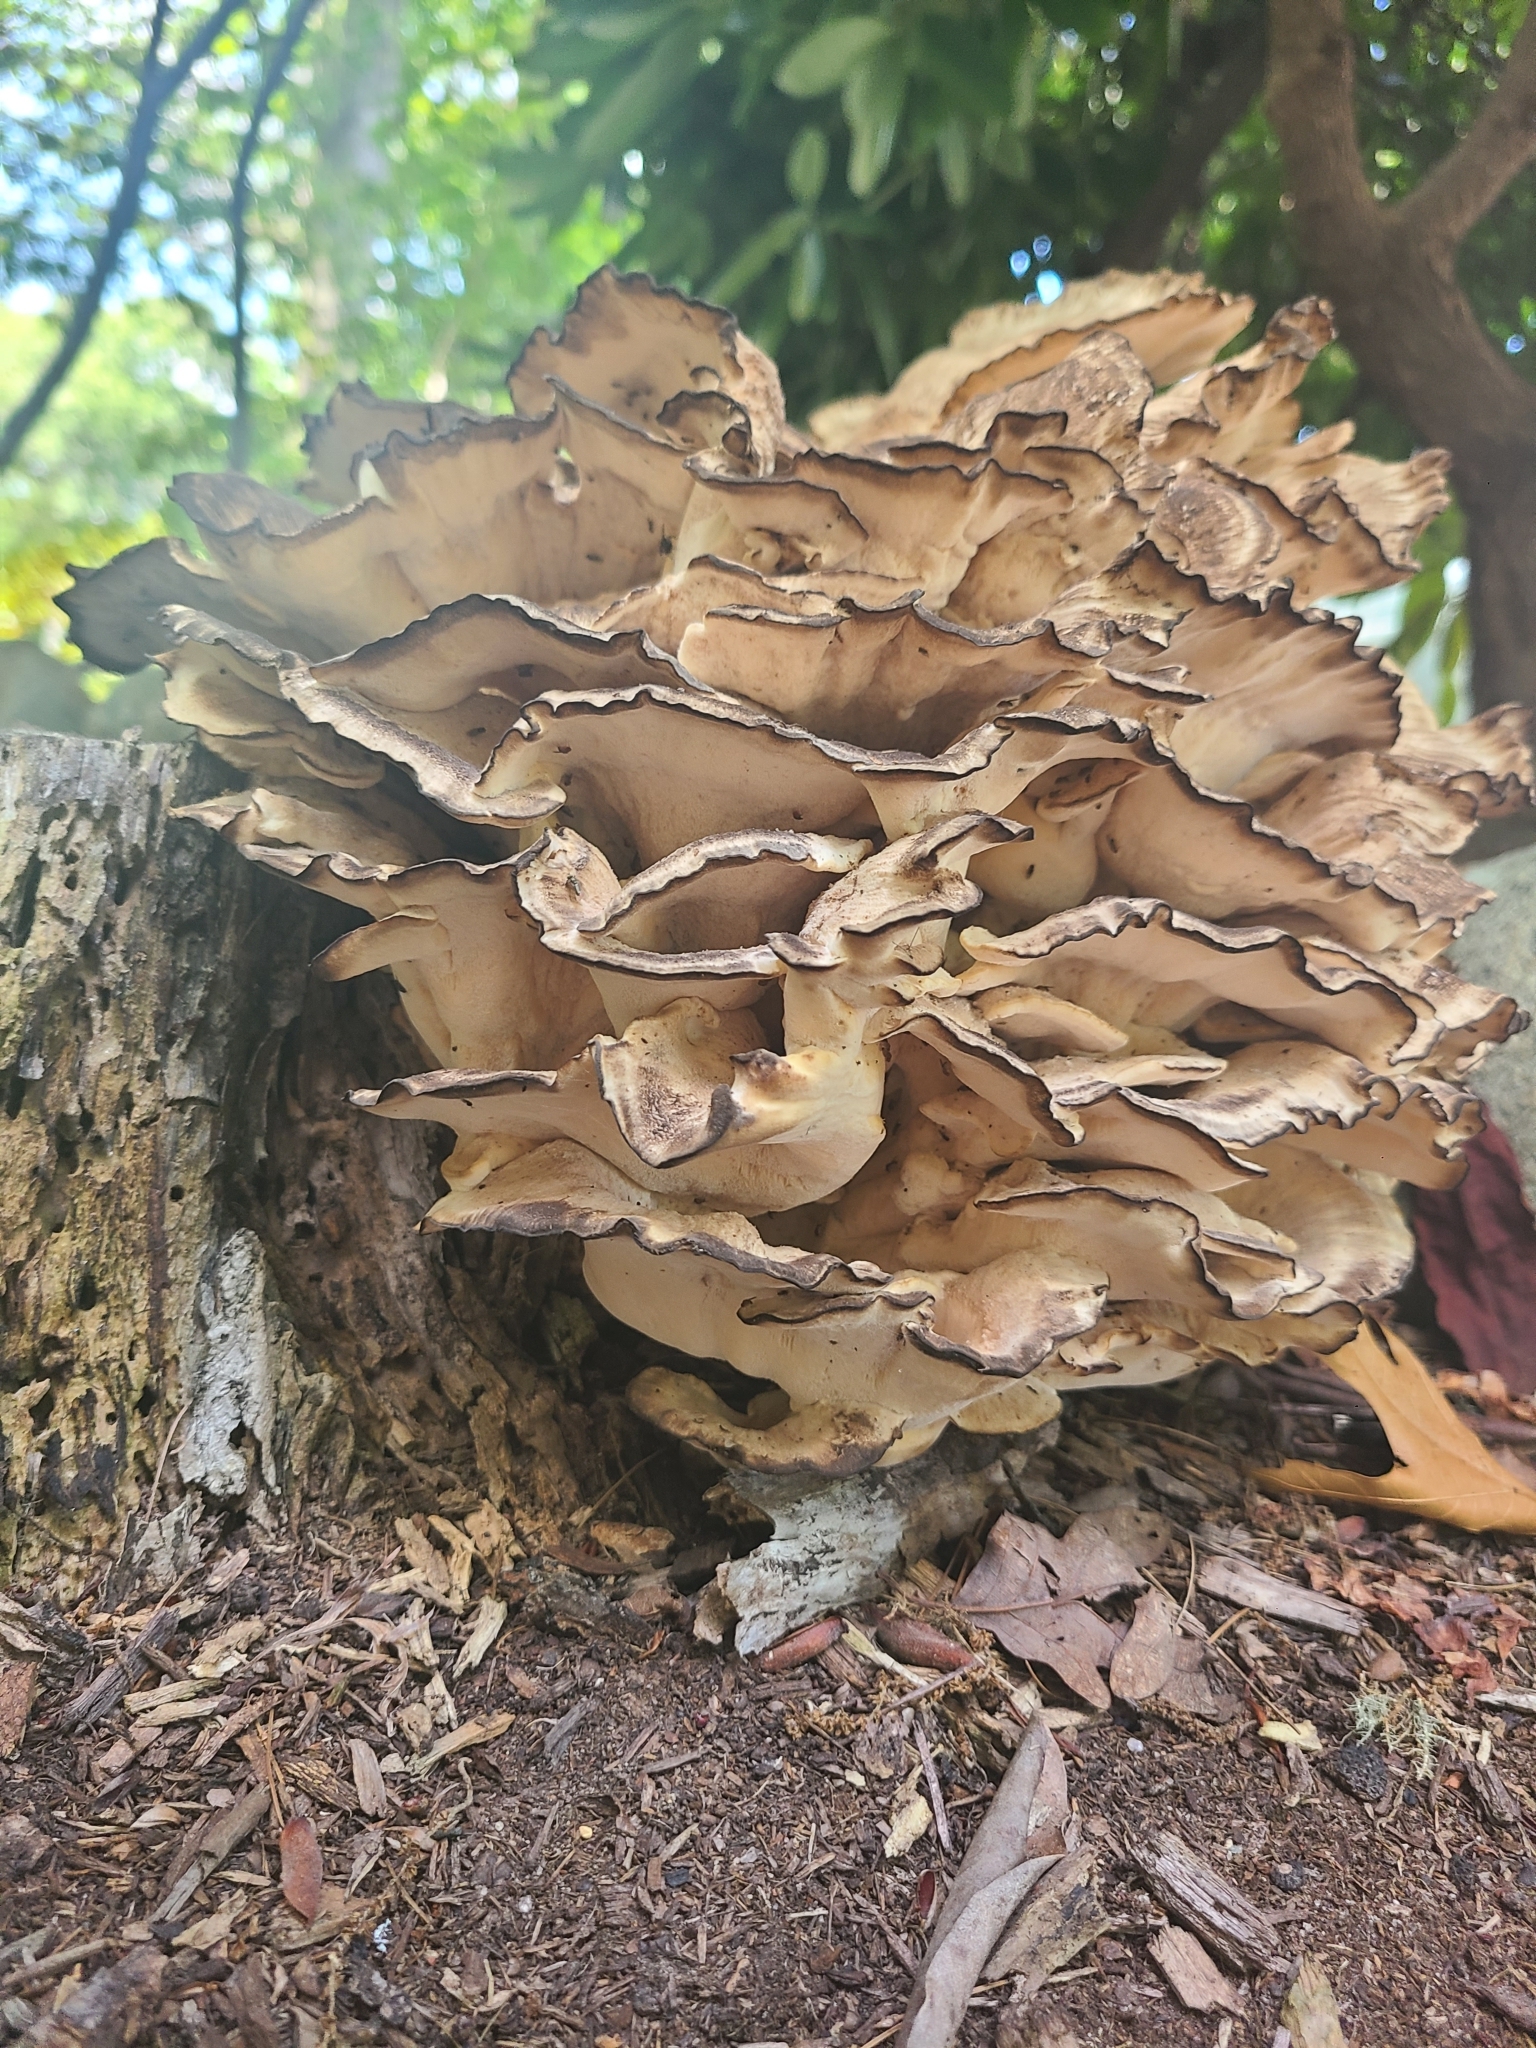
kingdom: Fungi
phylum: Basidiomycota
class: Agaricomycetes
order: Polyporales
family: Meripilaceae
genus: Meripilus
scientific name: Meripilus sumstinei
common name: Black-staining polypore
